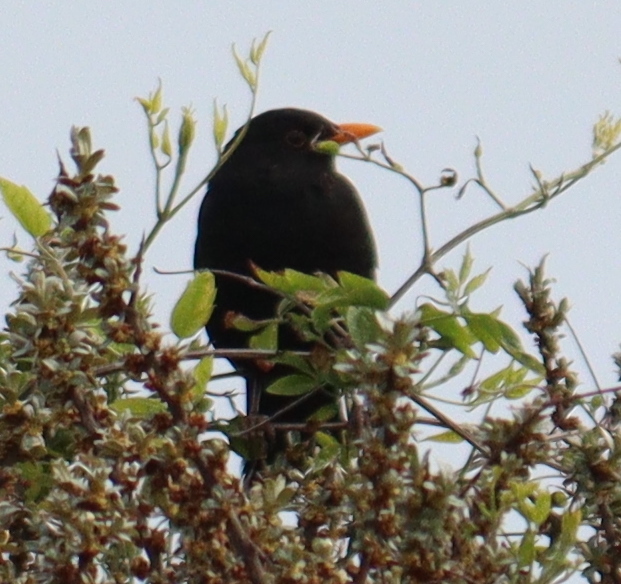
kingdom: Animalia
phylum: Chordata
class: Aves
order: Passeriformes
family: Turdidae
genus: Turdus
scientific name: Turdus merula
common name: Common blackbird
